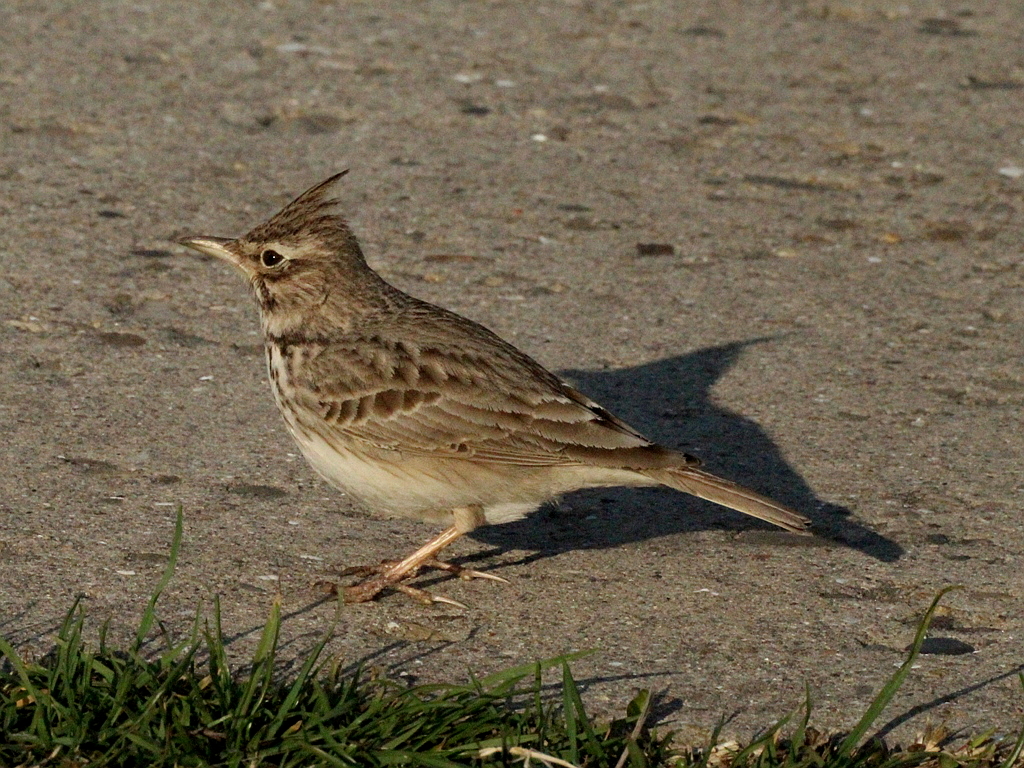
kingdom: Animalia
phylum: Chordata
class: Aves
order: Passeriformes
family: Alaudidae
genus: Galerida
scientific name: Galerida cristata
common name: Crested lark
